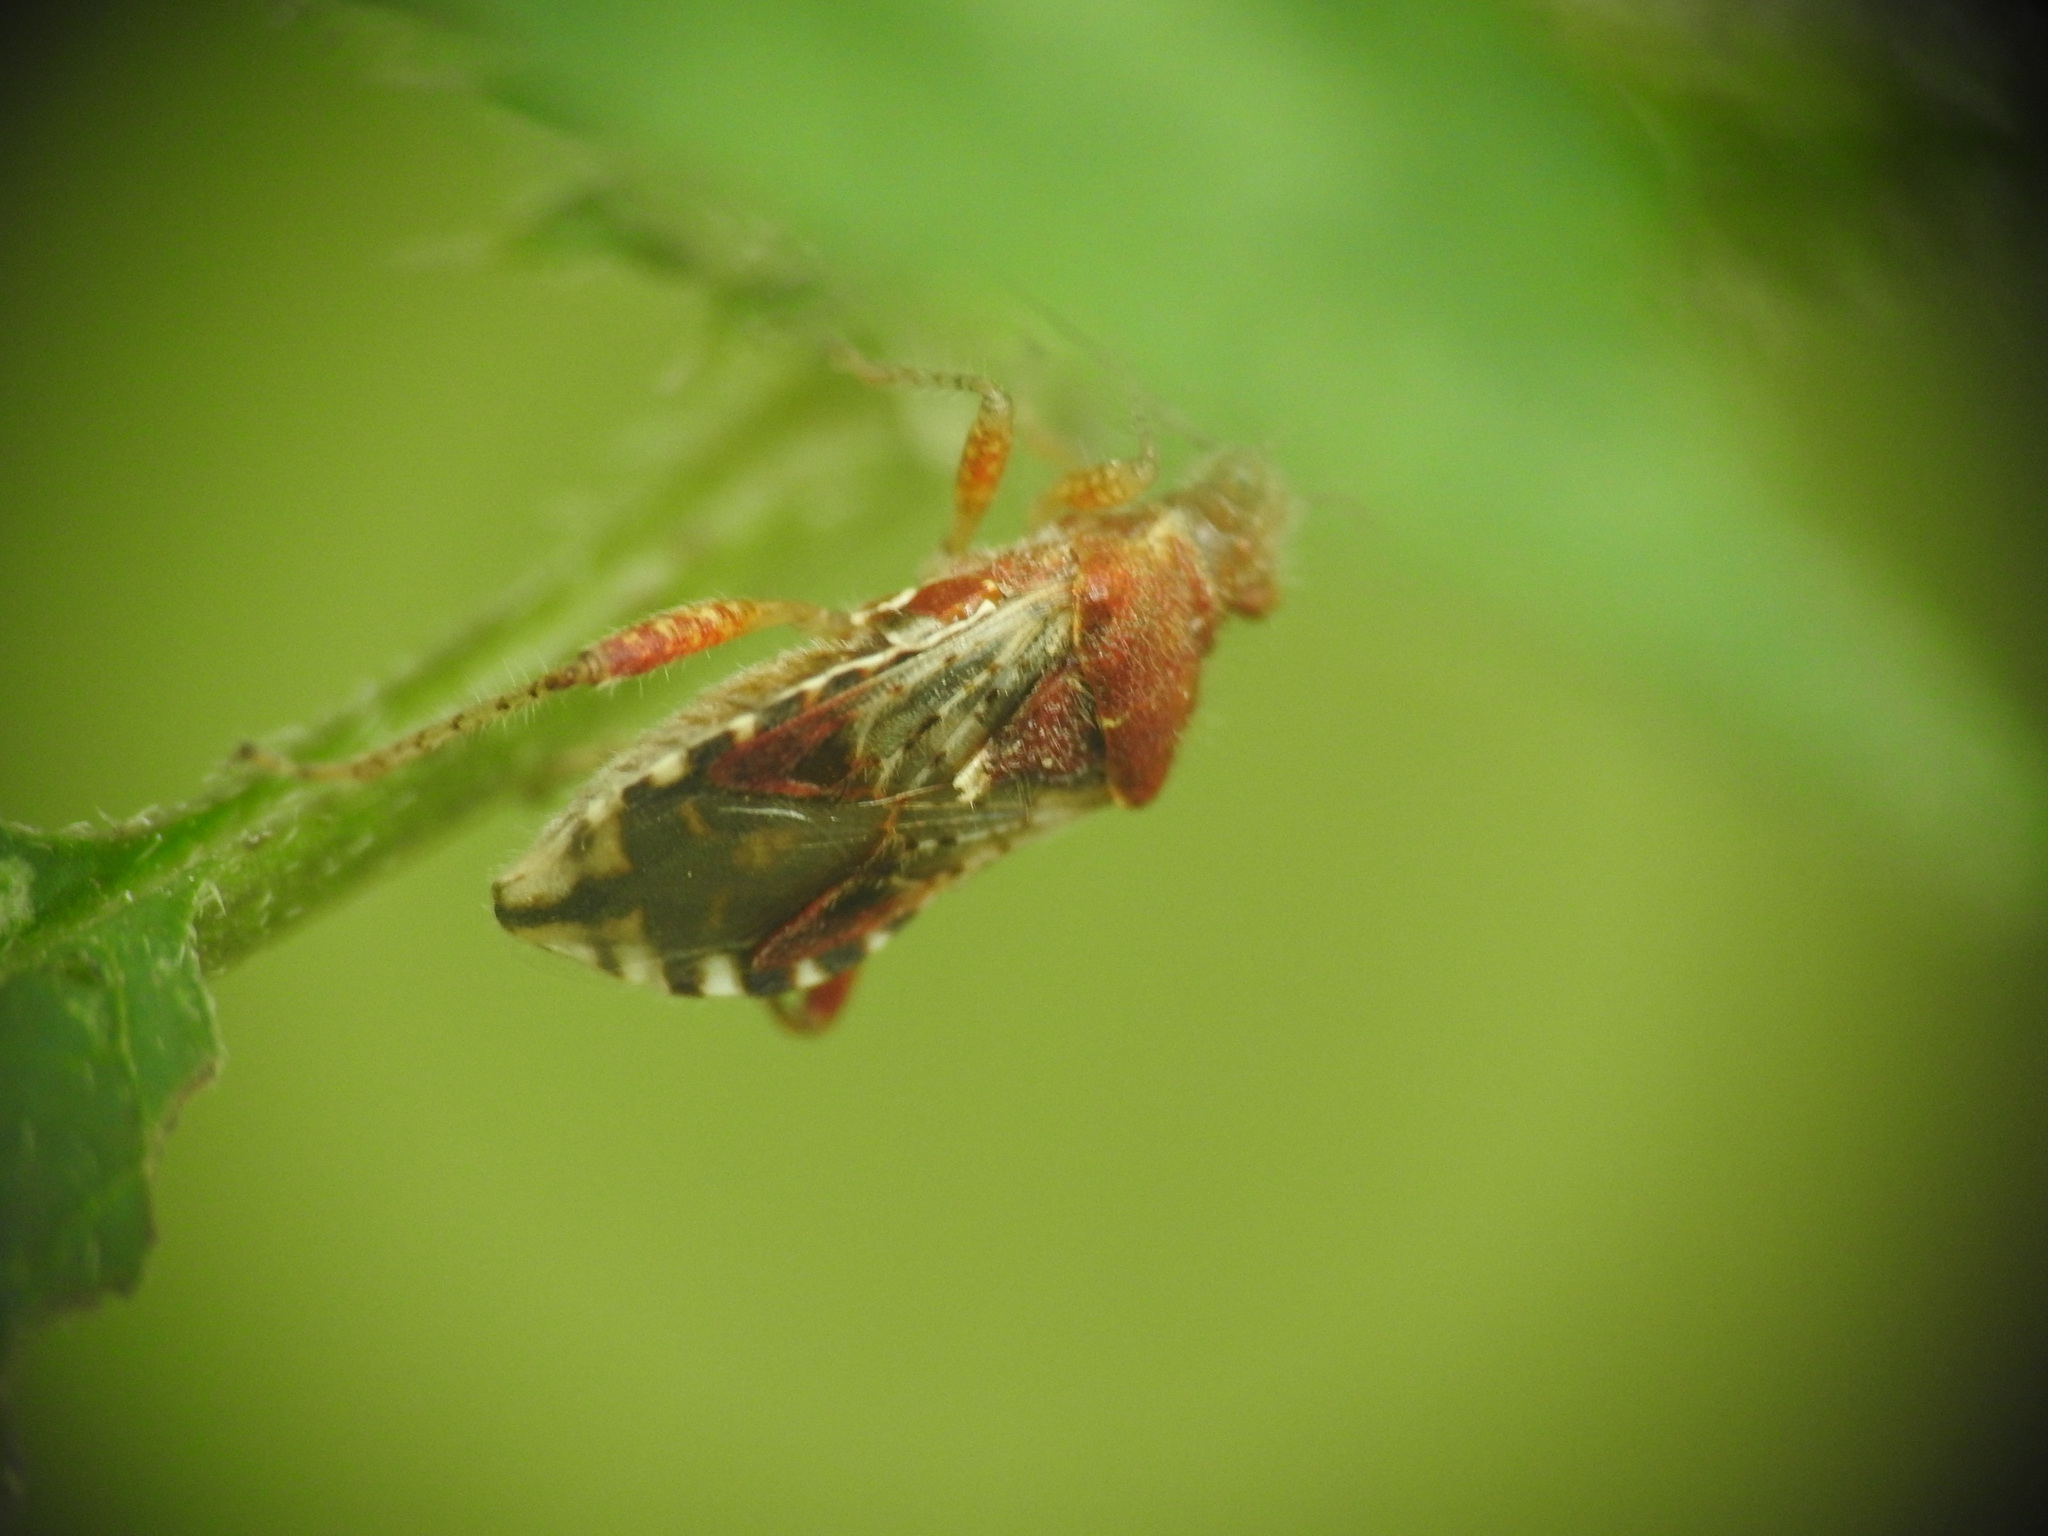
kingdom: Animalia
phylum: Arthropoda
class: Insecta
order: Hemiptera
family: Rhopalidae
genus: Rhopalus
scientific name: Rhopalus subrufus
